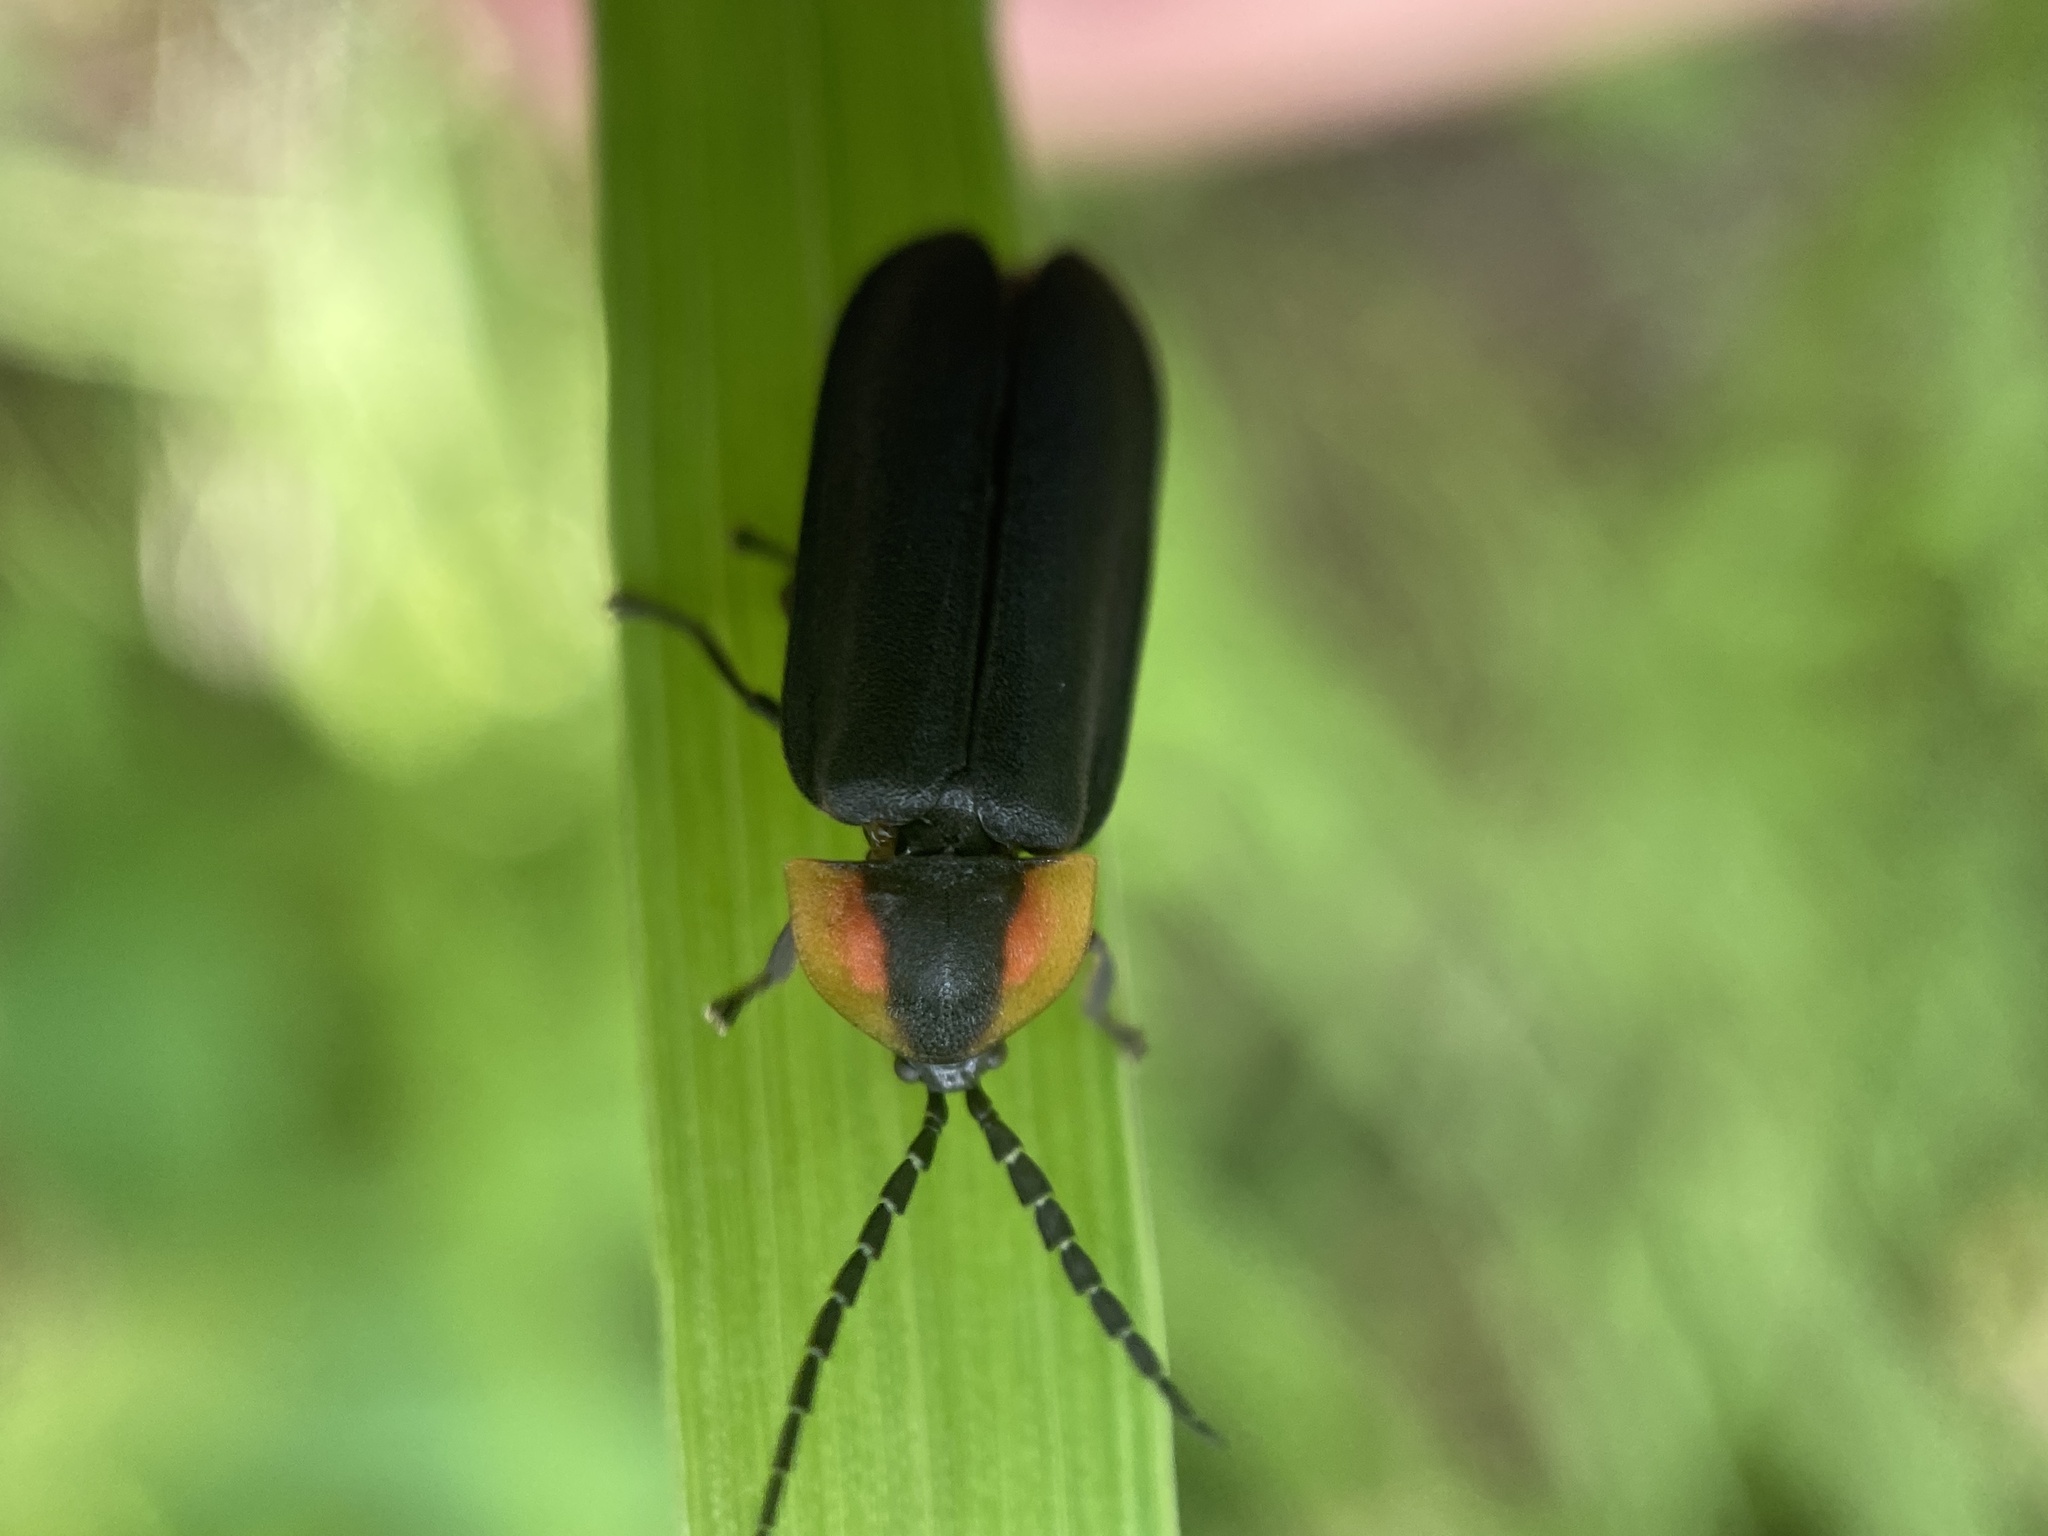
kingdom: Animalia
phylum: Arthropoda
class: Insecta
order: Coleoptera
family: Lampyridae
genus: Lucidota
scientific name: Lucidota atra
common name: Black firefly
